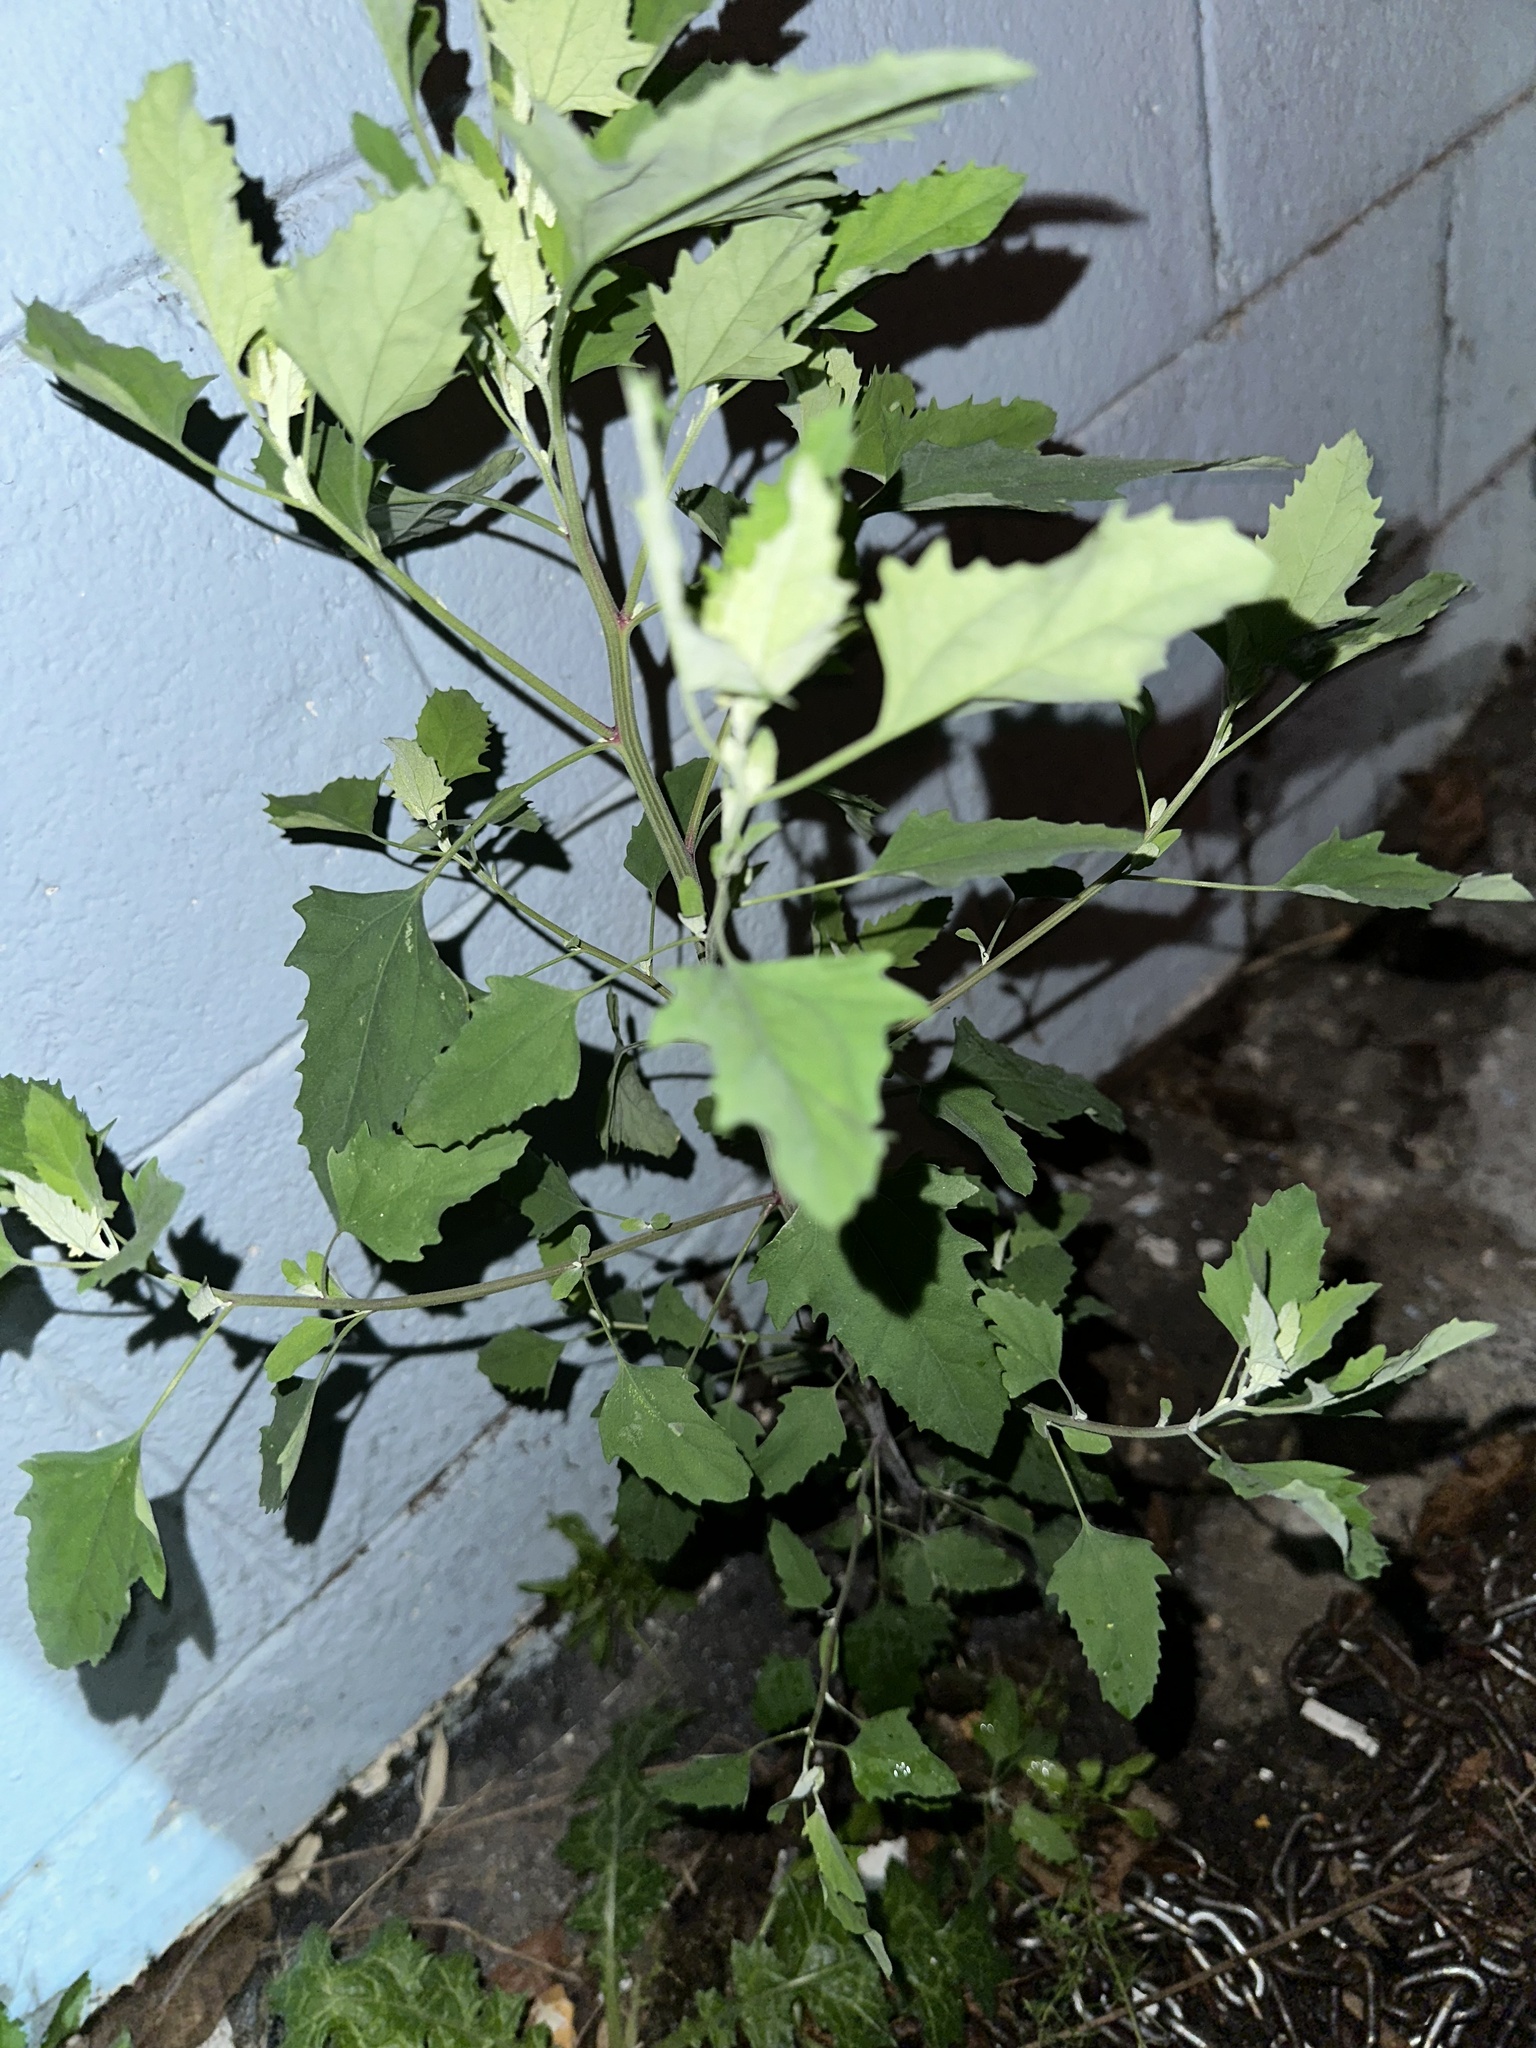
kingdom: Plantae
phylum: Tracheophyta
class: Magnoliopsida
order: Caryophyllales
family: Amaranthaceae
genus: Chenopodium
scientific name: Chenopodium album
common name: Fat-hen
